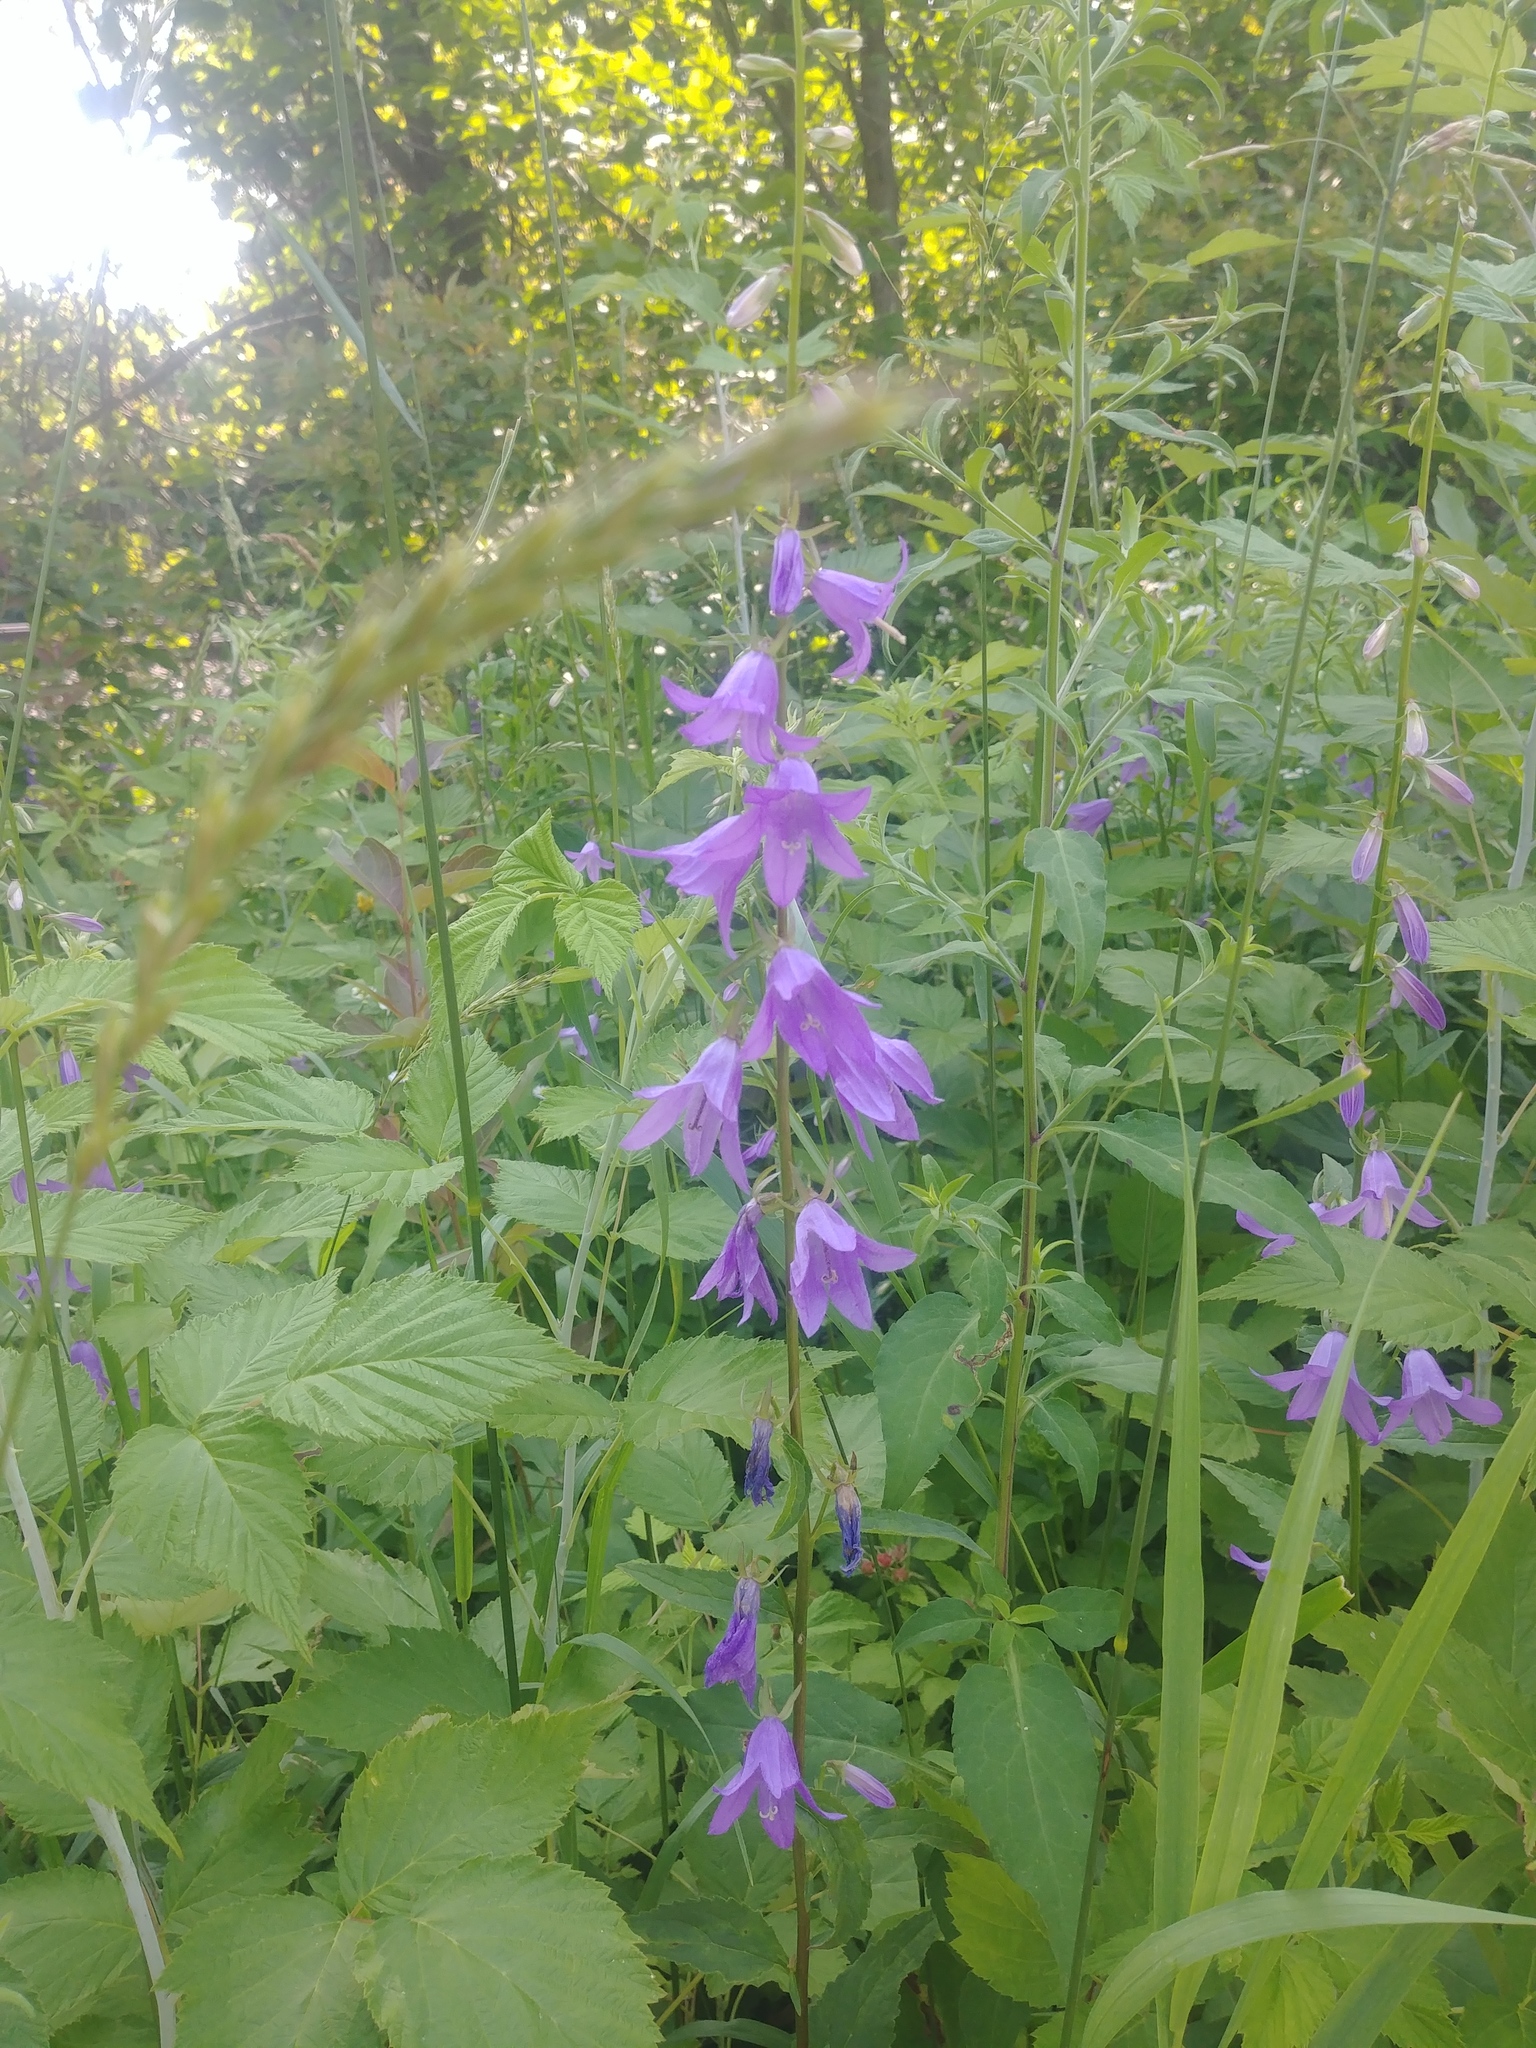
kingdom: Plantae
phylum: Tracheophyta
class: Magnoliopsida
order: Asterales
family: Campanulaceae
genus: Campanula
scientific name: Campanula rapunculoides
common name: Creeping bellflower
